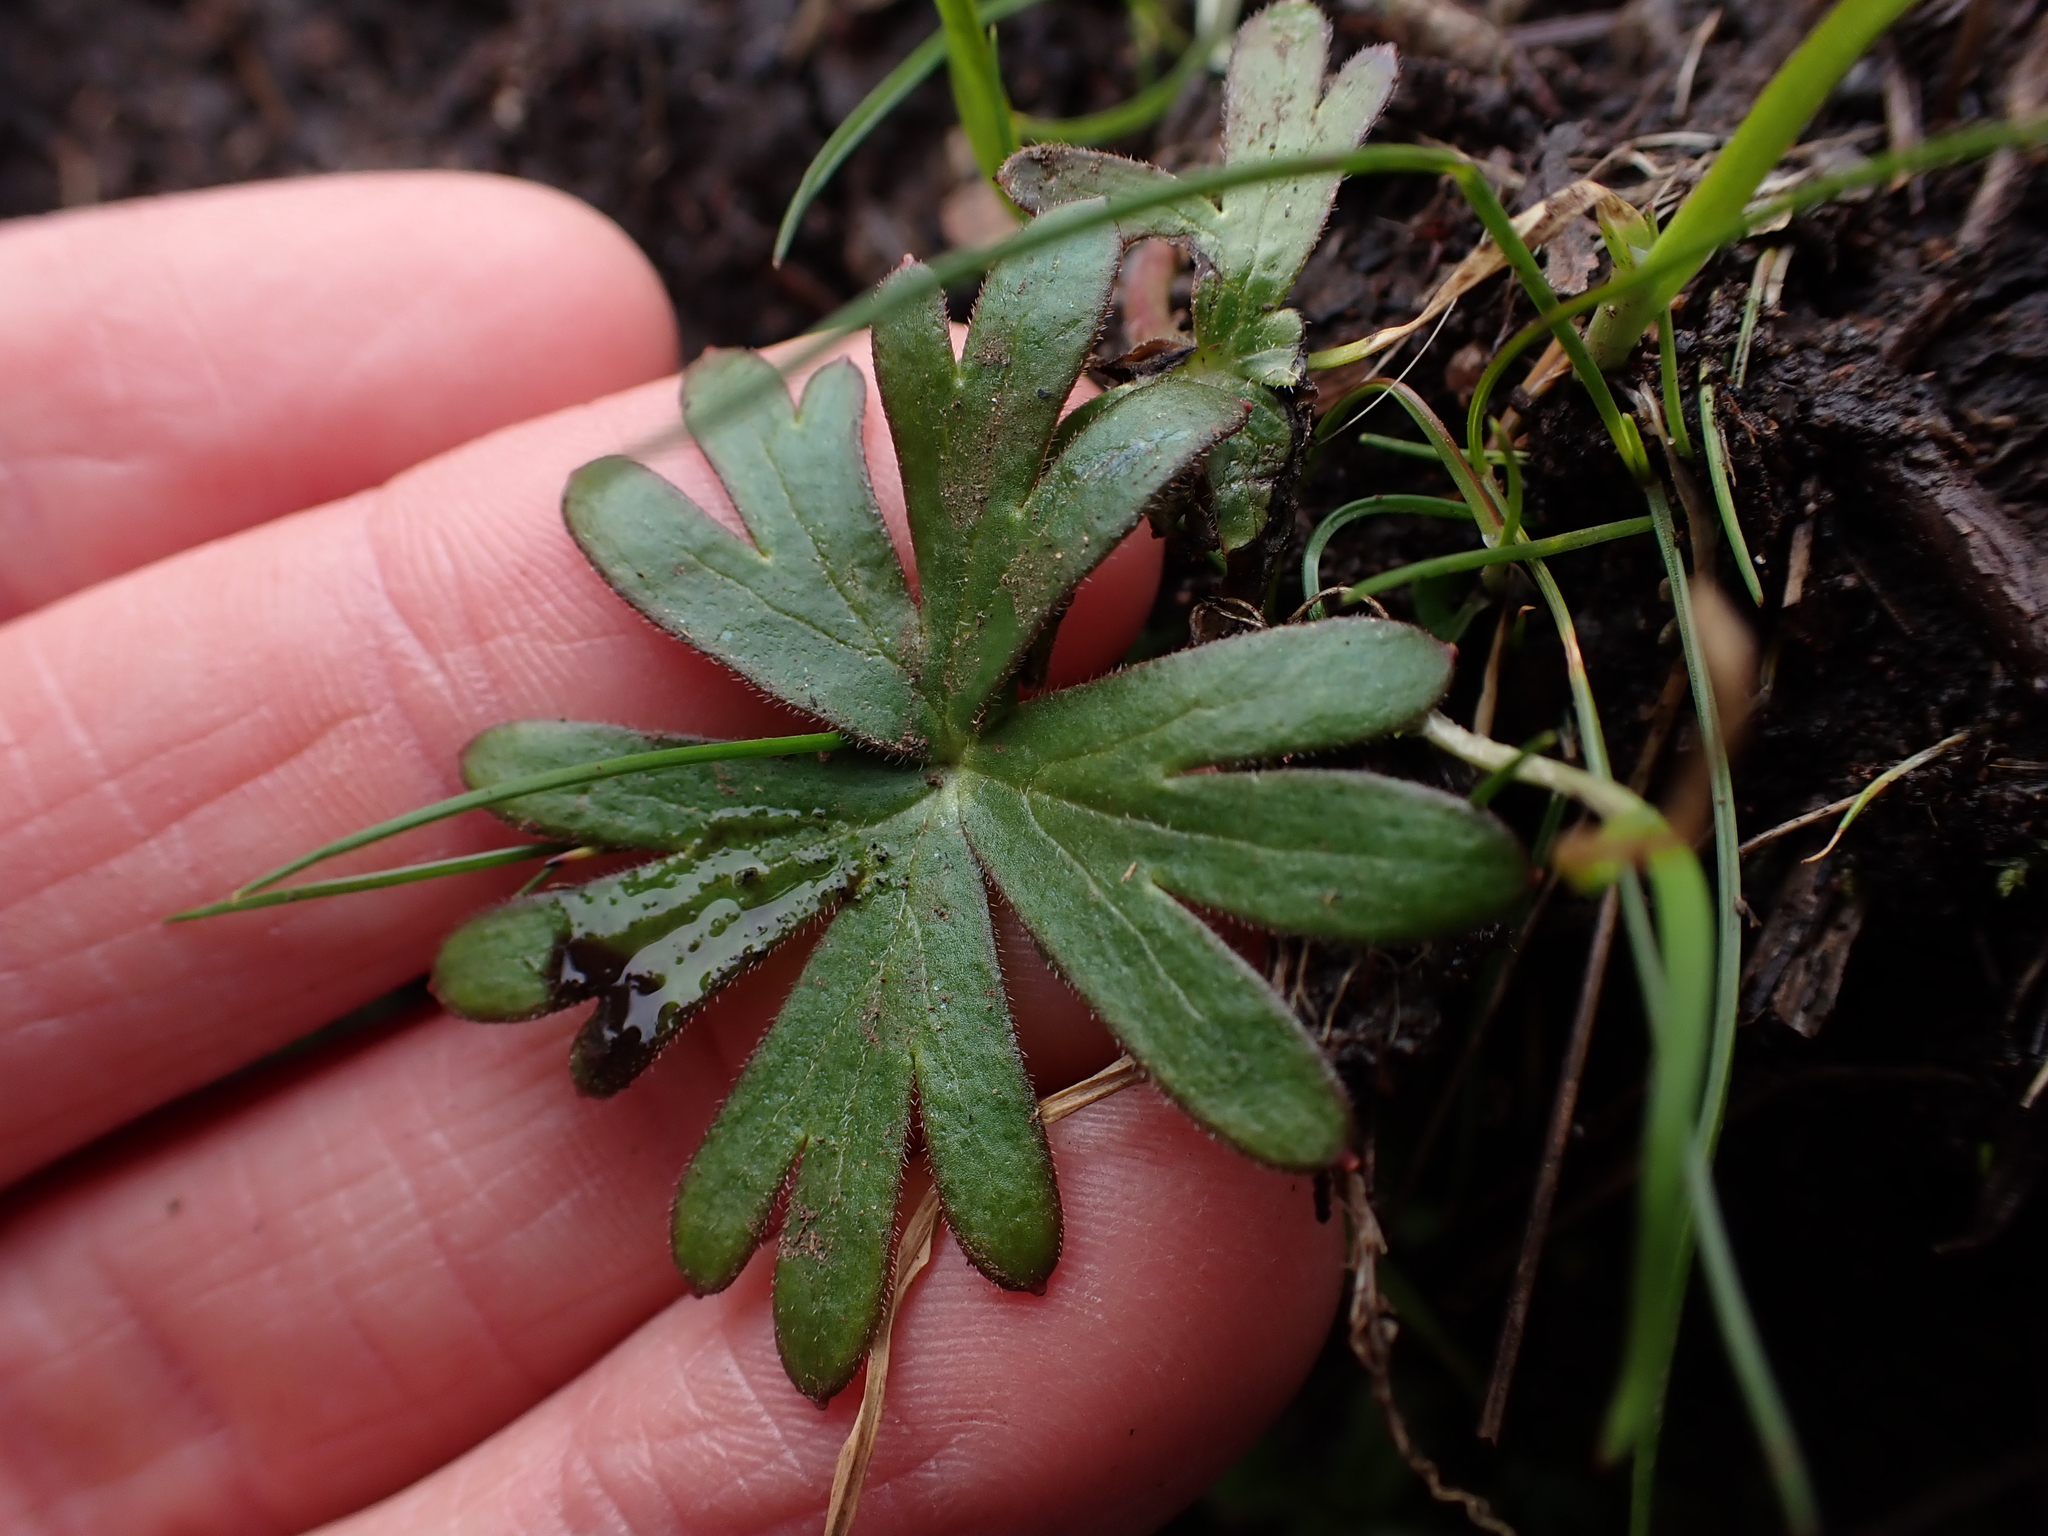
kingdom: Plantae
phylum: Tracheophyta
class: Magnoliopsida
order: Ranunculales
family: Ranunculaceae
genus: Delphinium
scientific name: Delphinium menziesii
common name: Menzies's larkspur
